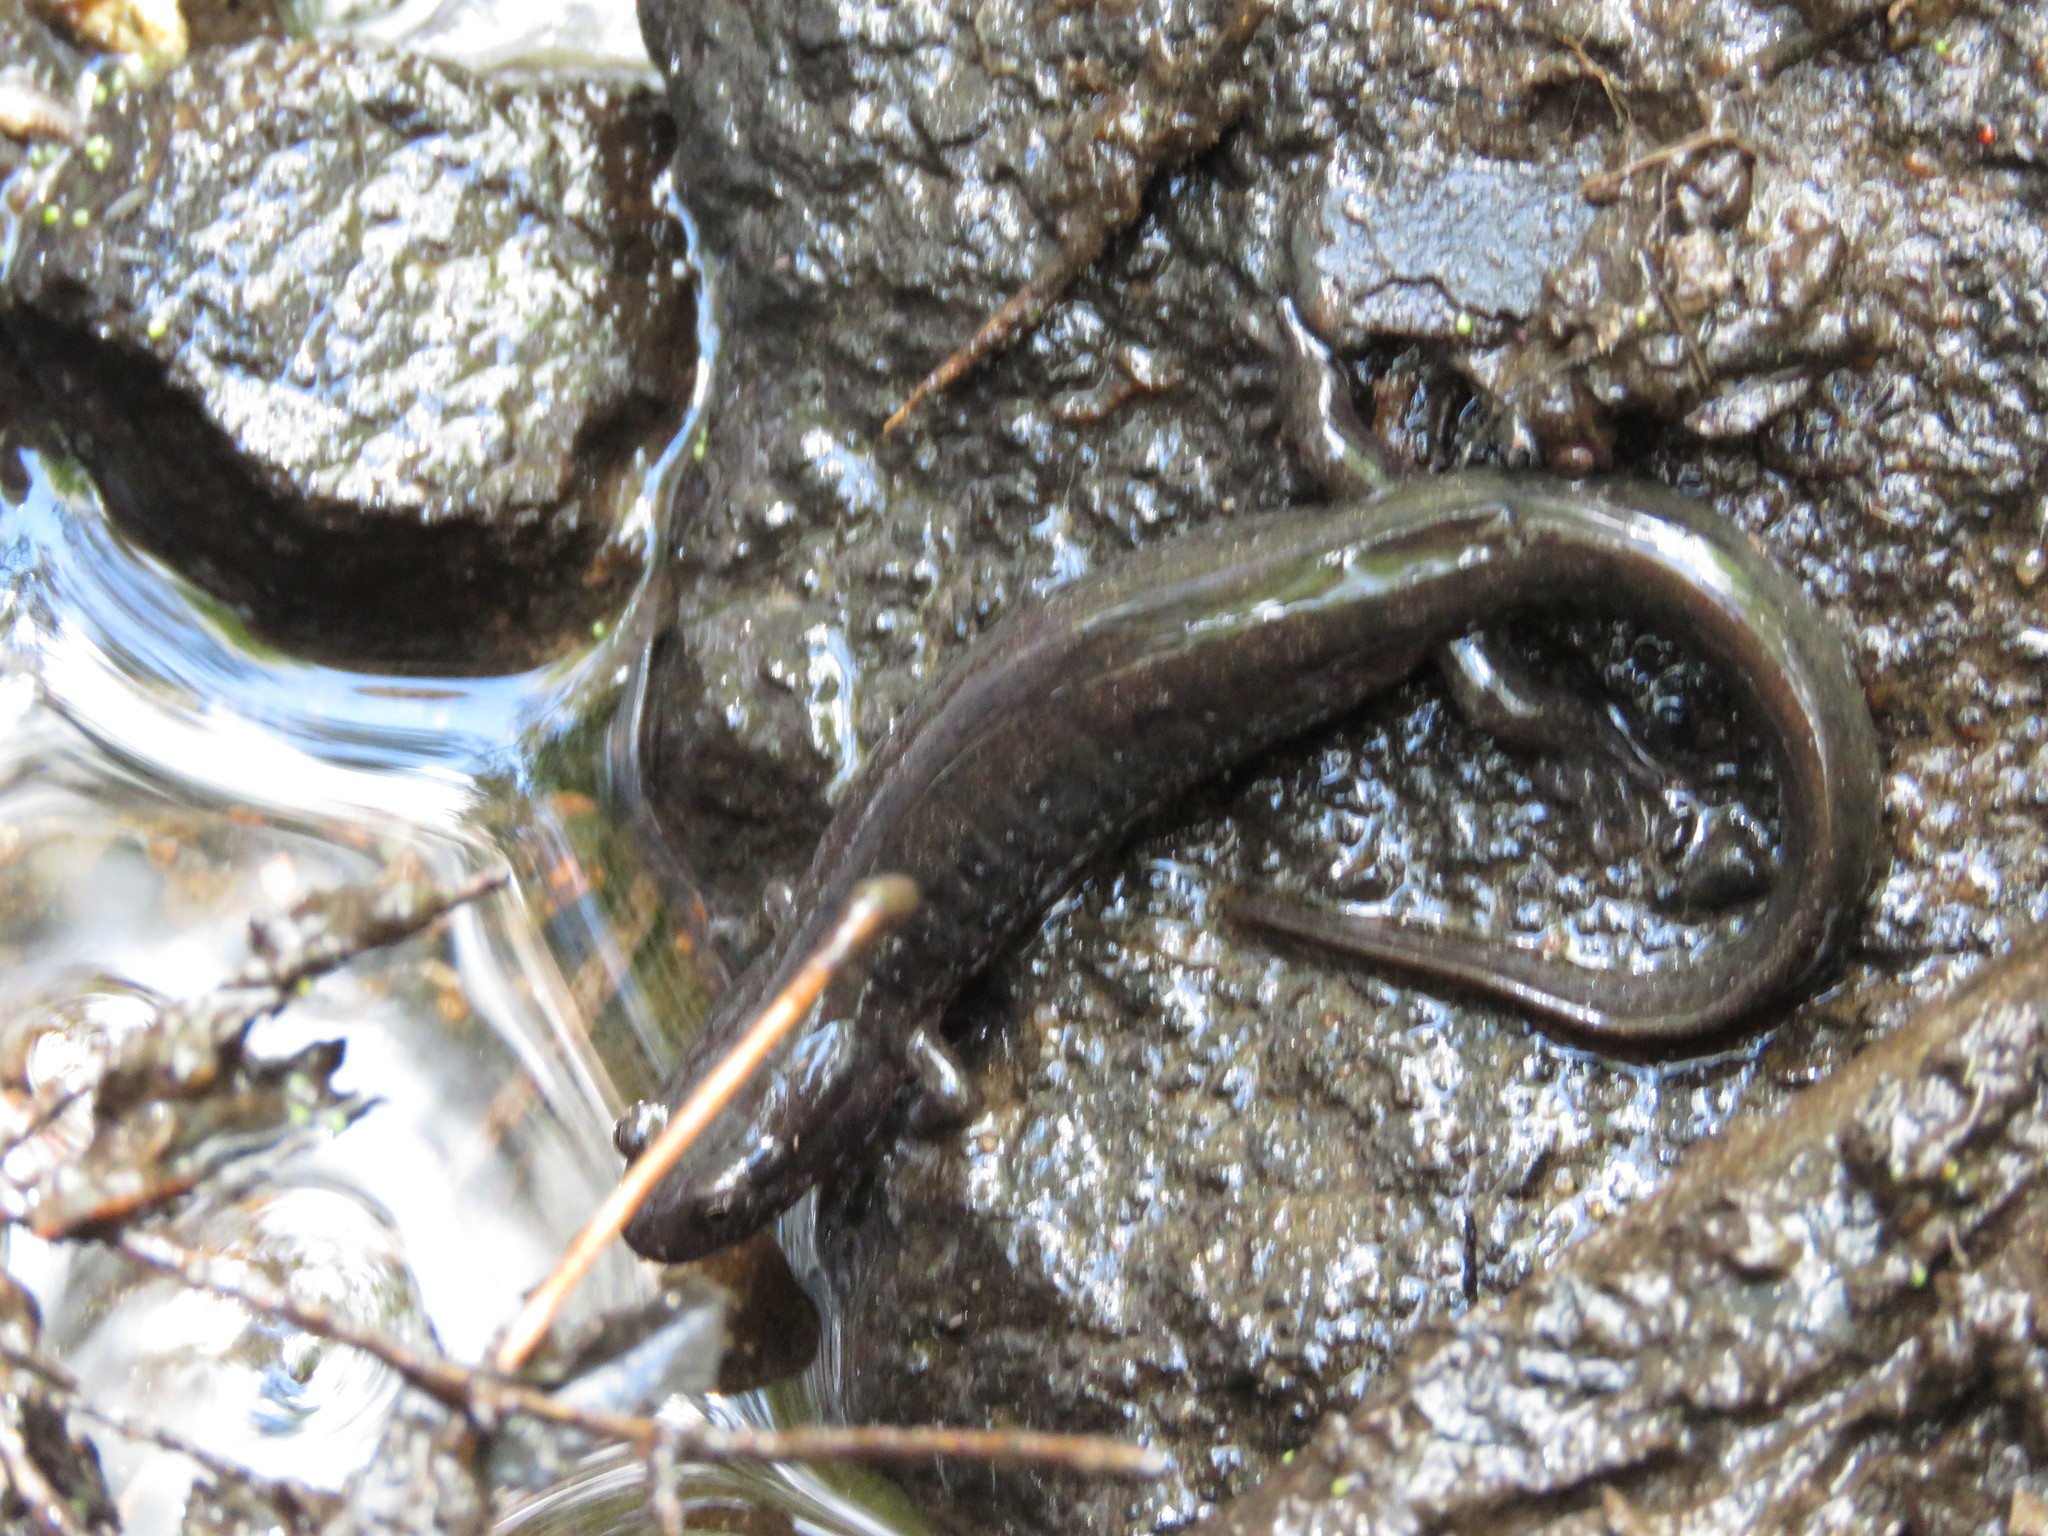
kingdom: Animalia
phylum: Chordata
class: Amphibia
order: Caudata
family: Plethodontidae
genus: Desmognathus
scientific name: Desmognathus fuscus
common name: Northern dusky salamander
